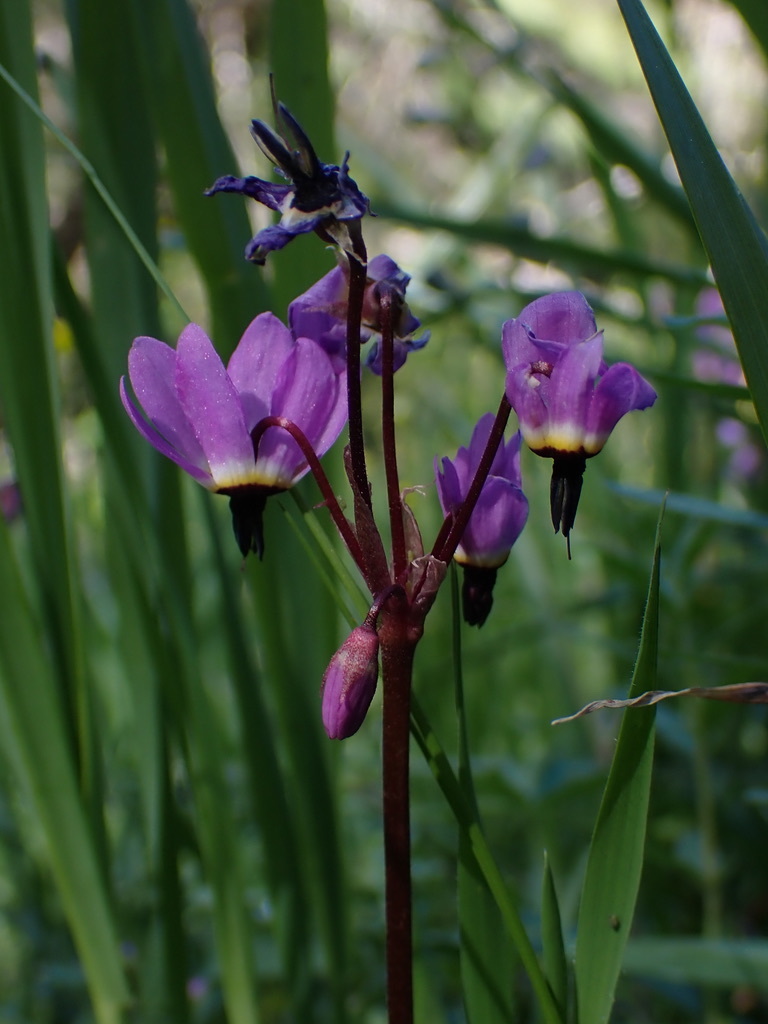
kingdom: Plantae
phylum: Tracheophyta
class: Magnoliopsida
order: Ericales
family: Primulaceae
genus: Dodecatheon
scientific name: Dodecatheon hendersonii
